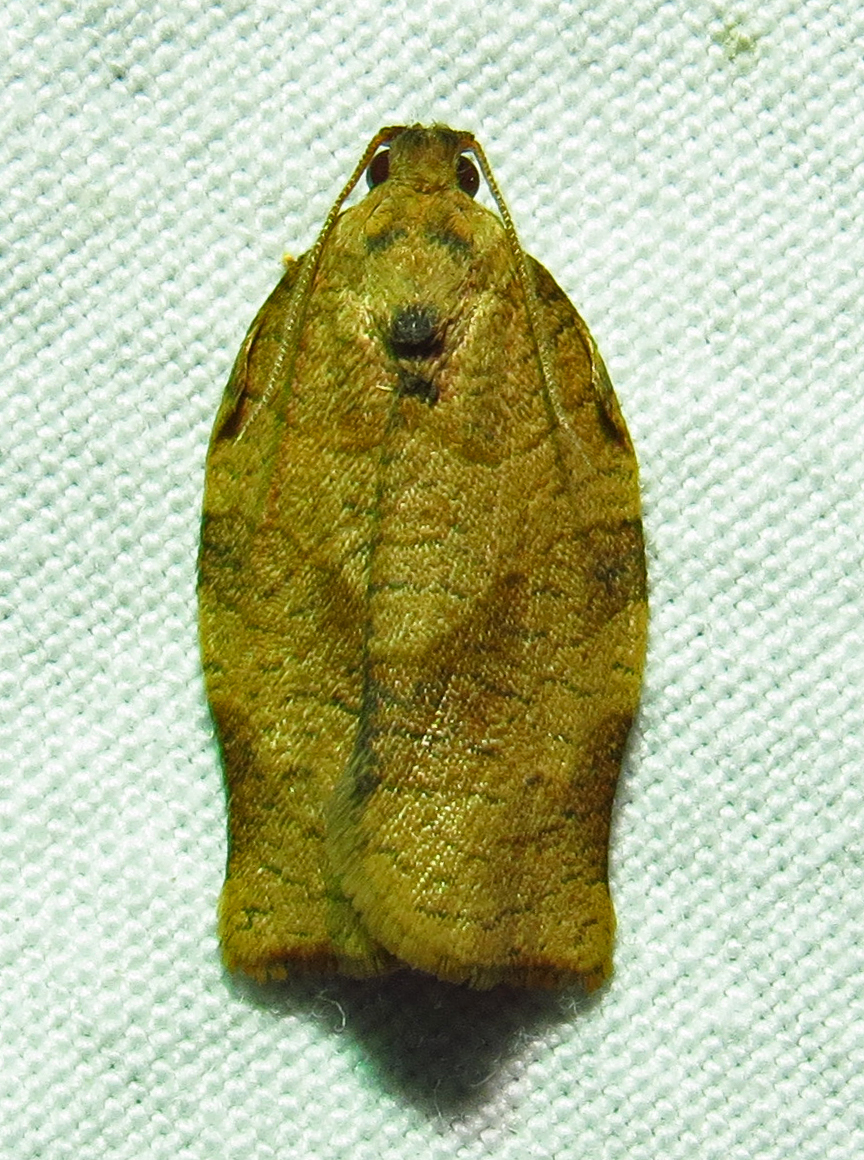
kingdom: Animalia
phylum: Arthropoda
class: Insecta
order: Lepidoptera
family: Tortricidae
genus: Choristoneura
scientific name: Choristoneura rosaceana
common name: Oblique-banded leafroller moth
